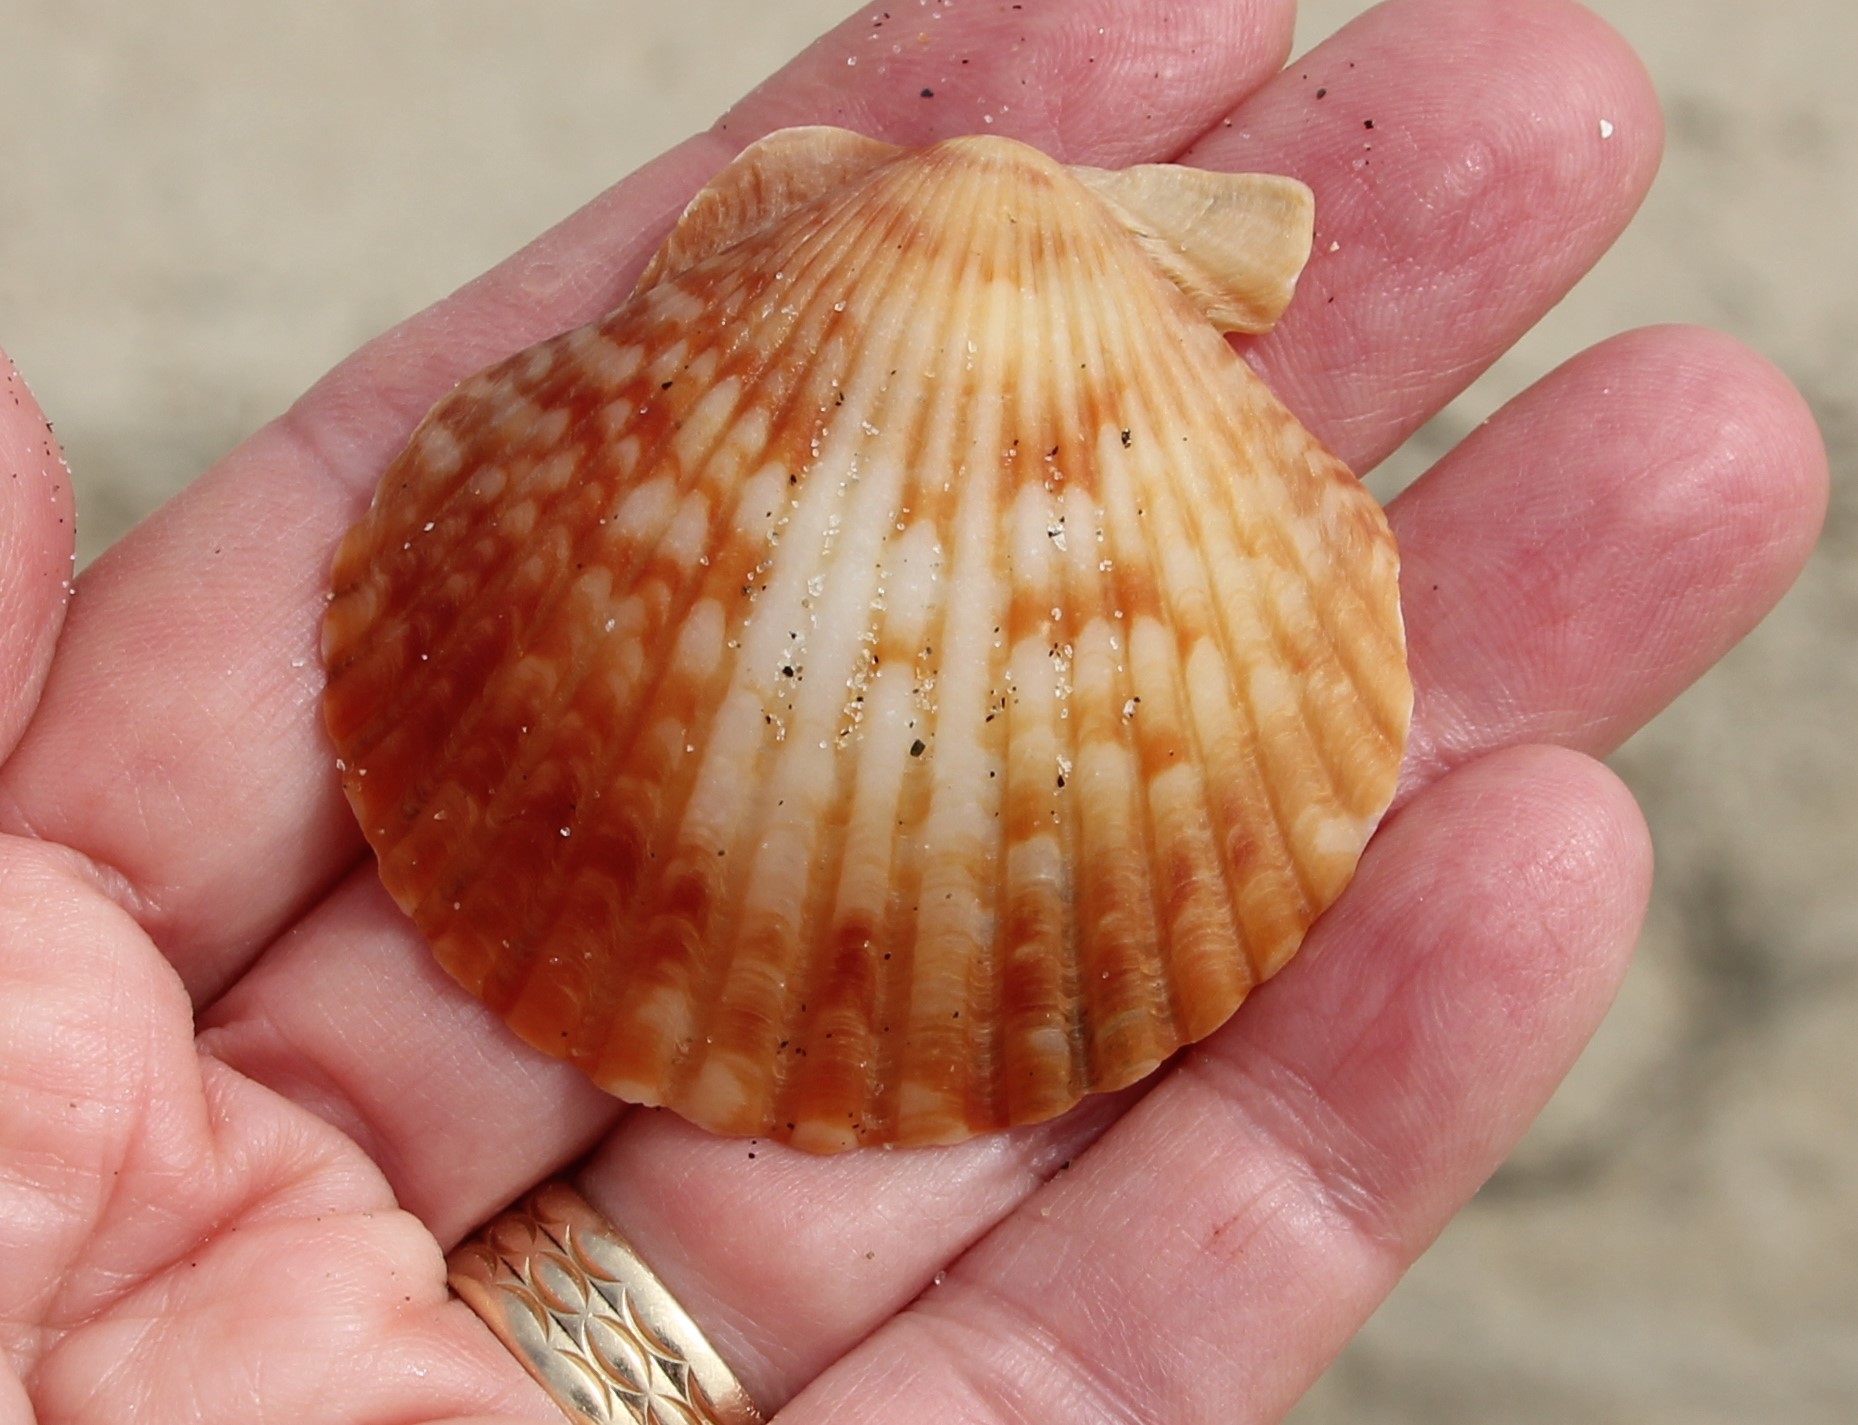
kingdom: Animalia
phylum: Mollusca
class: Bivalvia
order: Pectinida
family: Pectinidae
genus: Argopecten
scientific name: Argopecten ventricosus
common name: Catarina scallop
